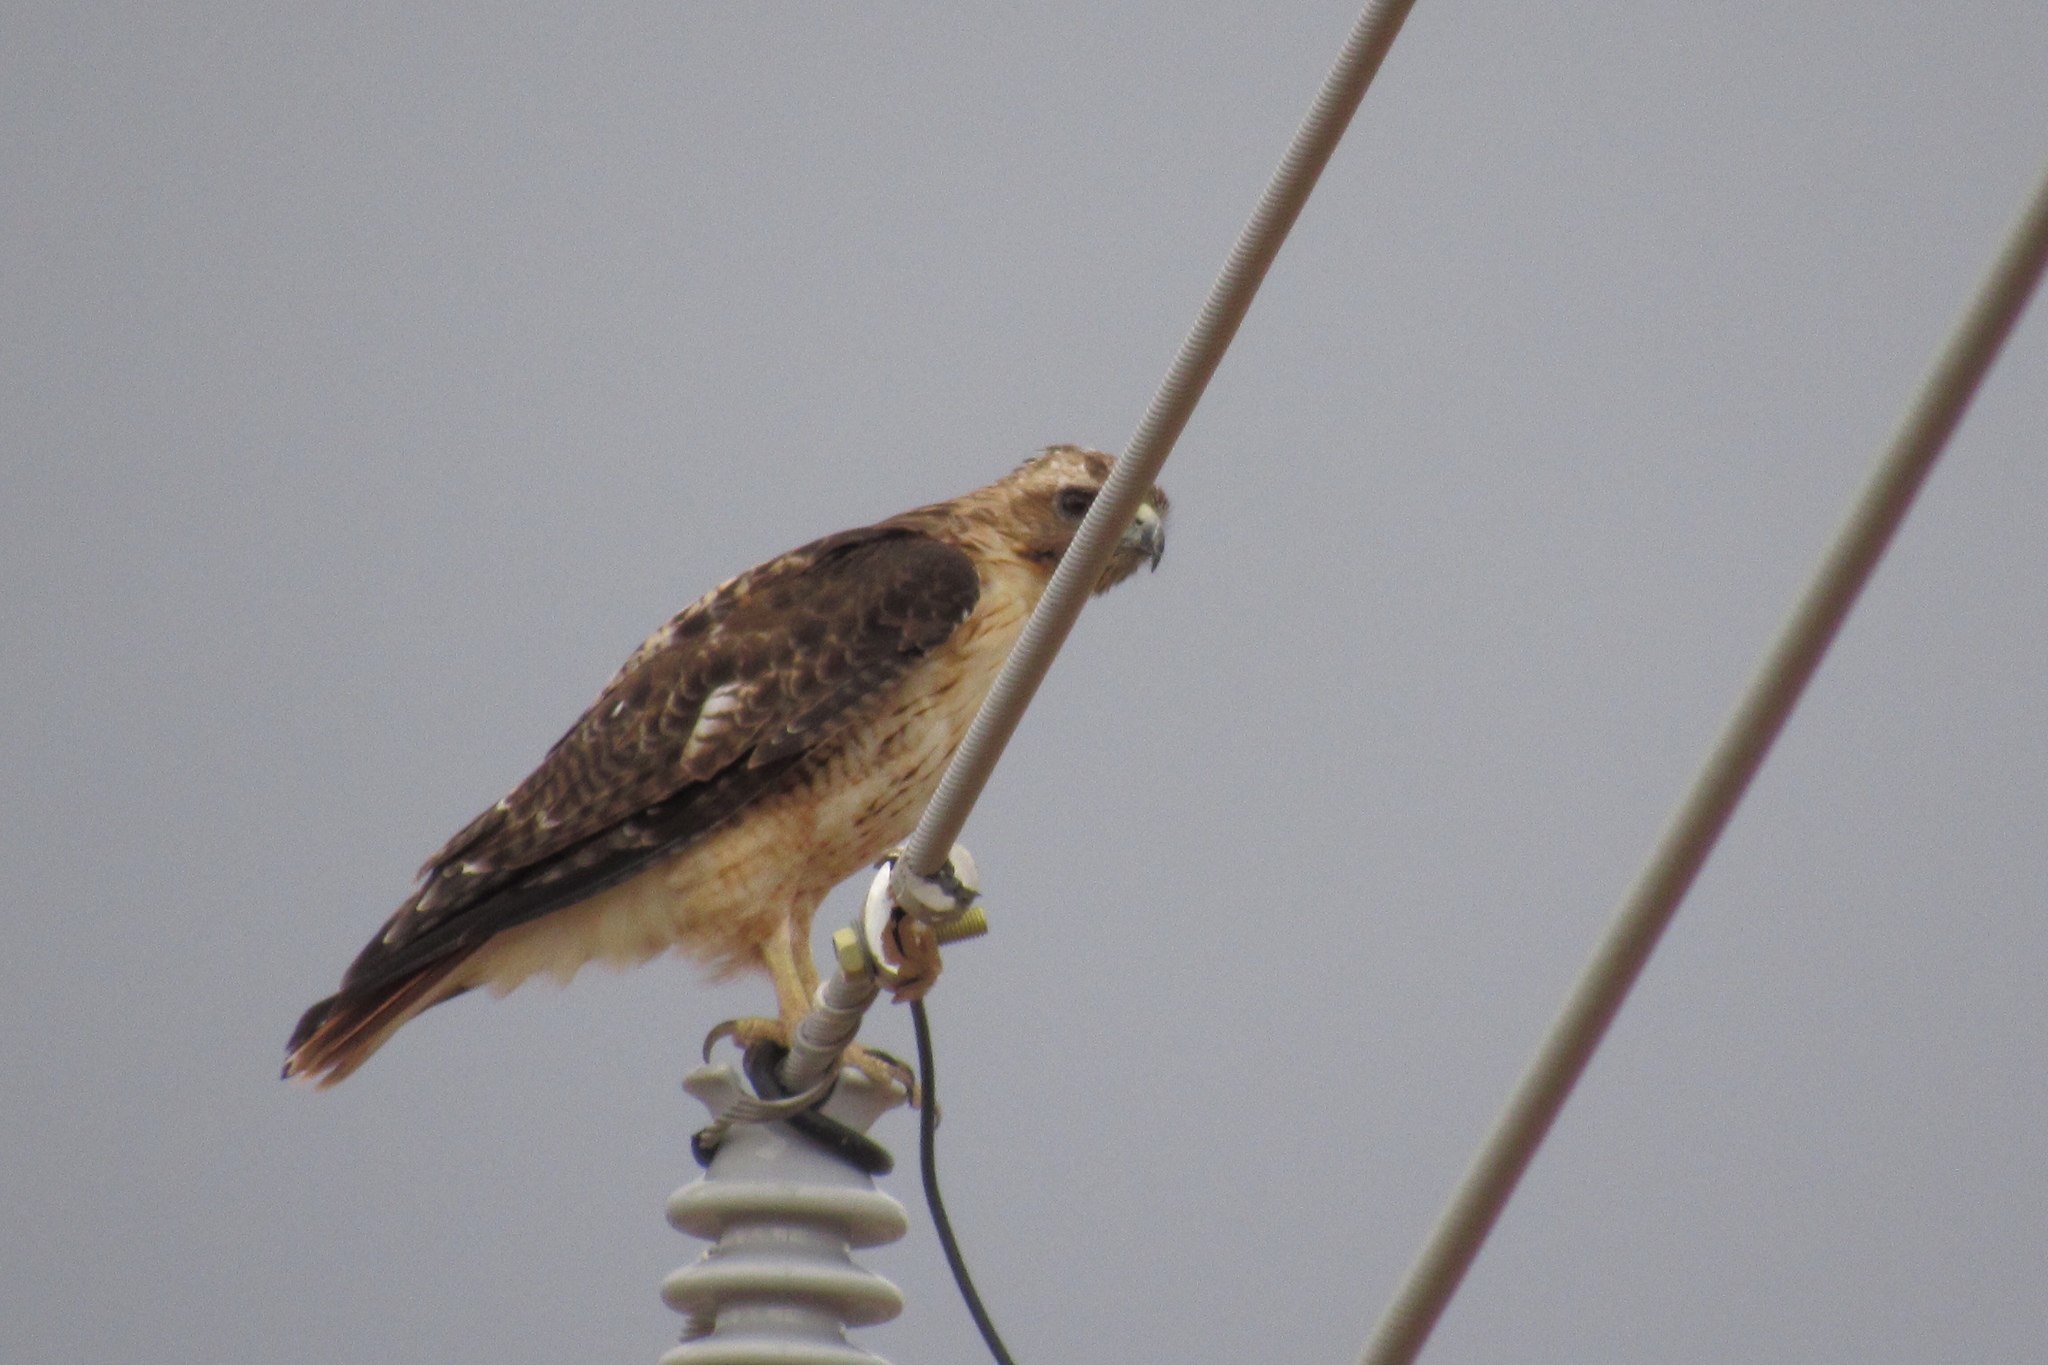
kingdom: Animalia
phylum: Chordata
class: Aves
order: Accipitriformes
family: Accipitridae
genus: Buteo
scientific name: Buteo jamaicensis
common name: Red-tailed hawk
